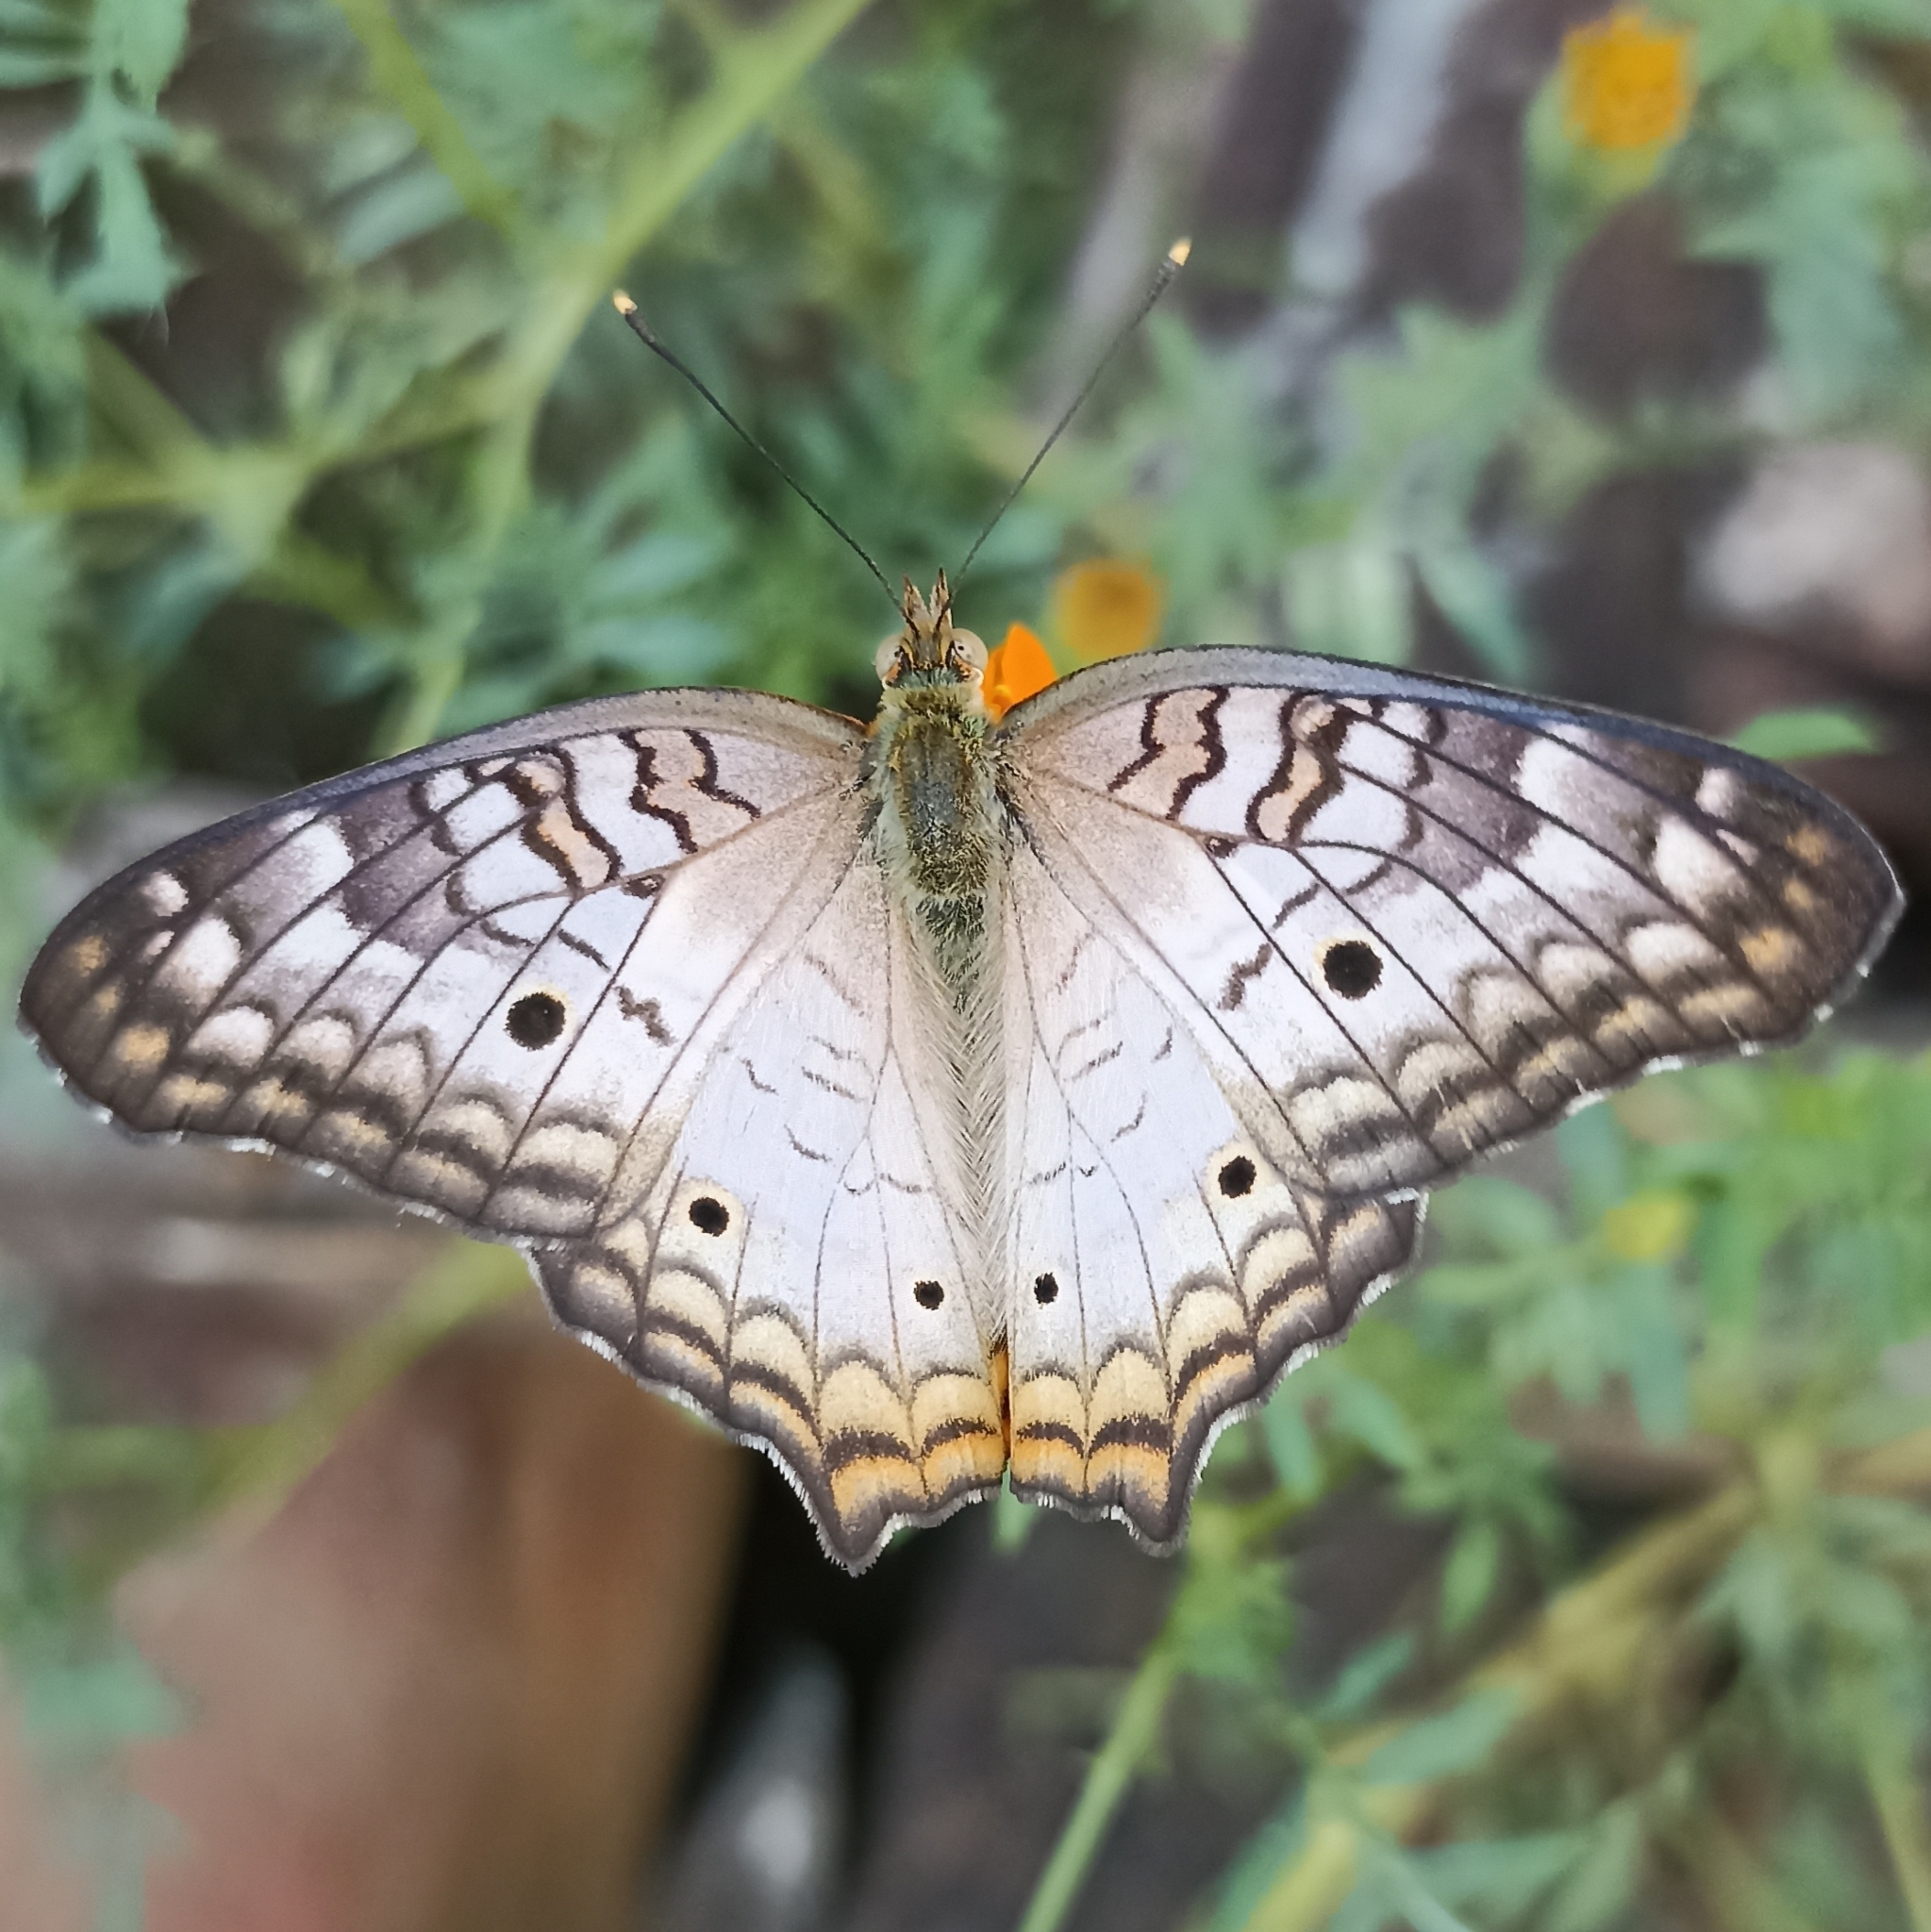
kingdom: Animalia
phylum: Arthropoda
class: Insecta
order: Lepidoptera
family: Nymphalidae
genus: Anartia
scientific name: Anartia jatrophae
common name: White peacock
